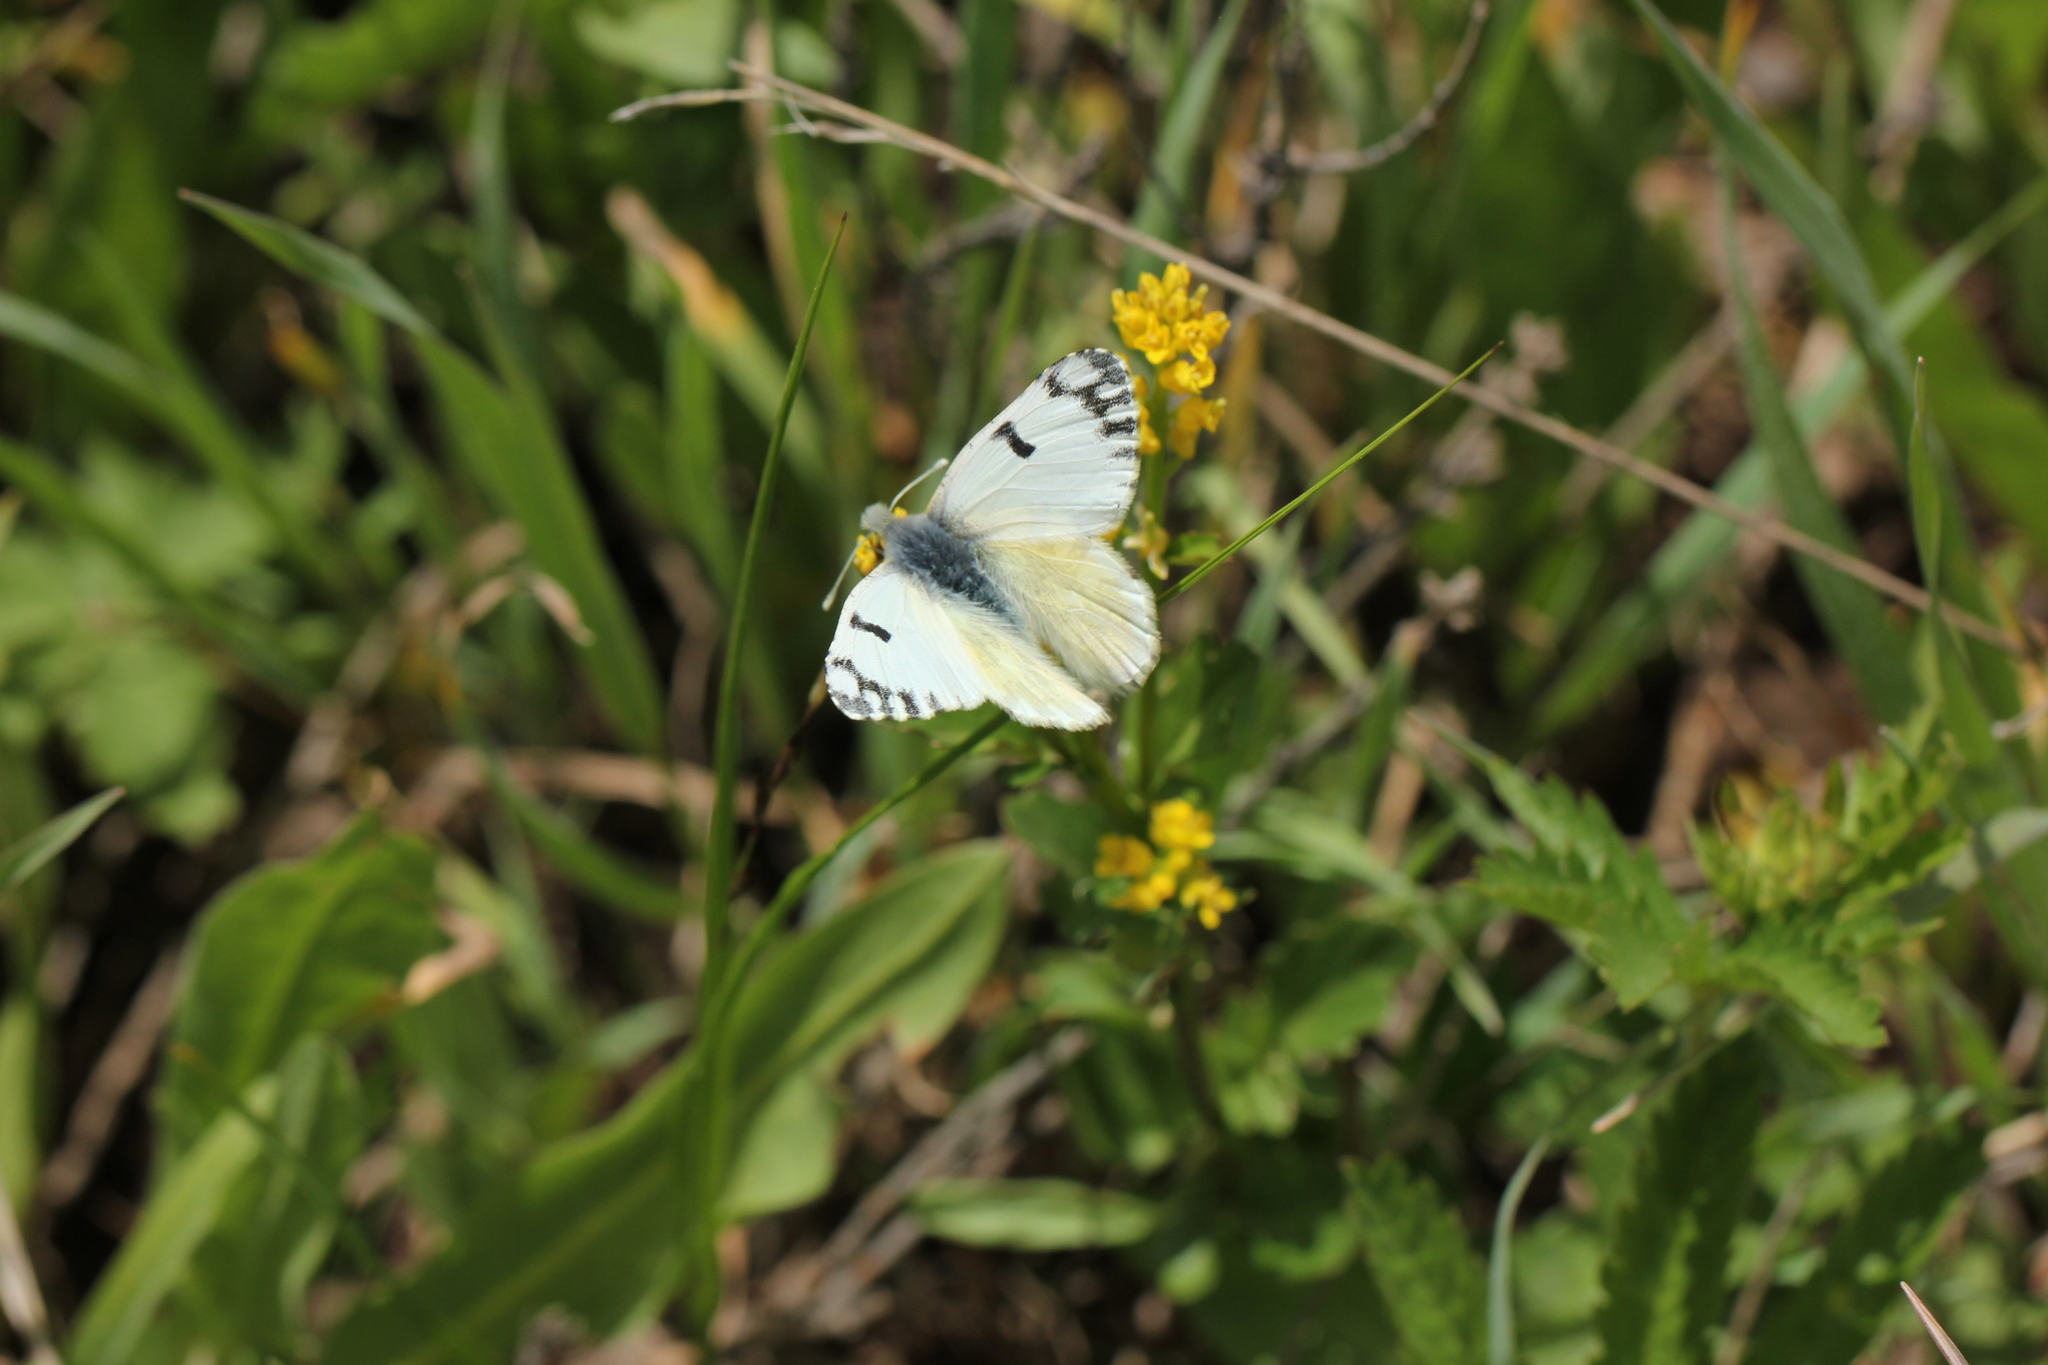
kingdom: Animalia
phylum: Arthropoda
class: Insecta
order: Lepidoptera
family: Pieridae
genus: Euchloe
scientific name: Euchloe ausonides
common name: Creamy marblewing
